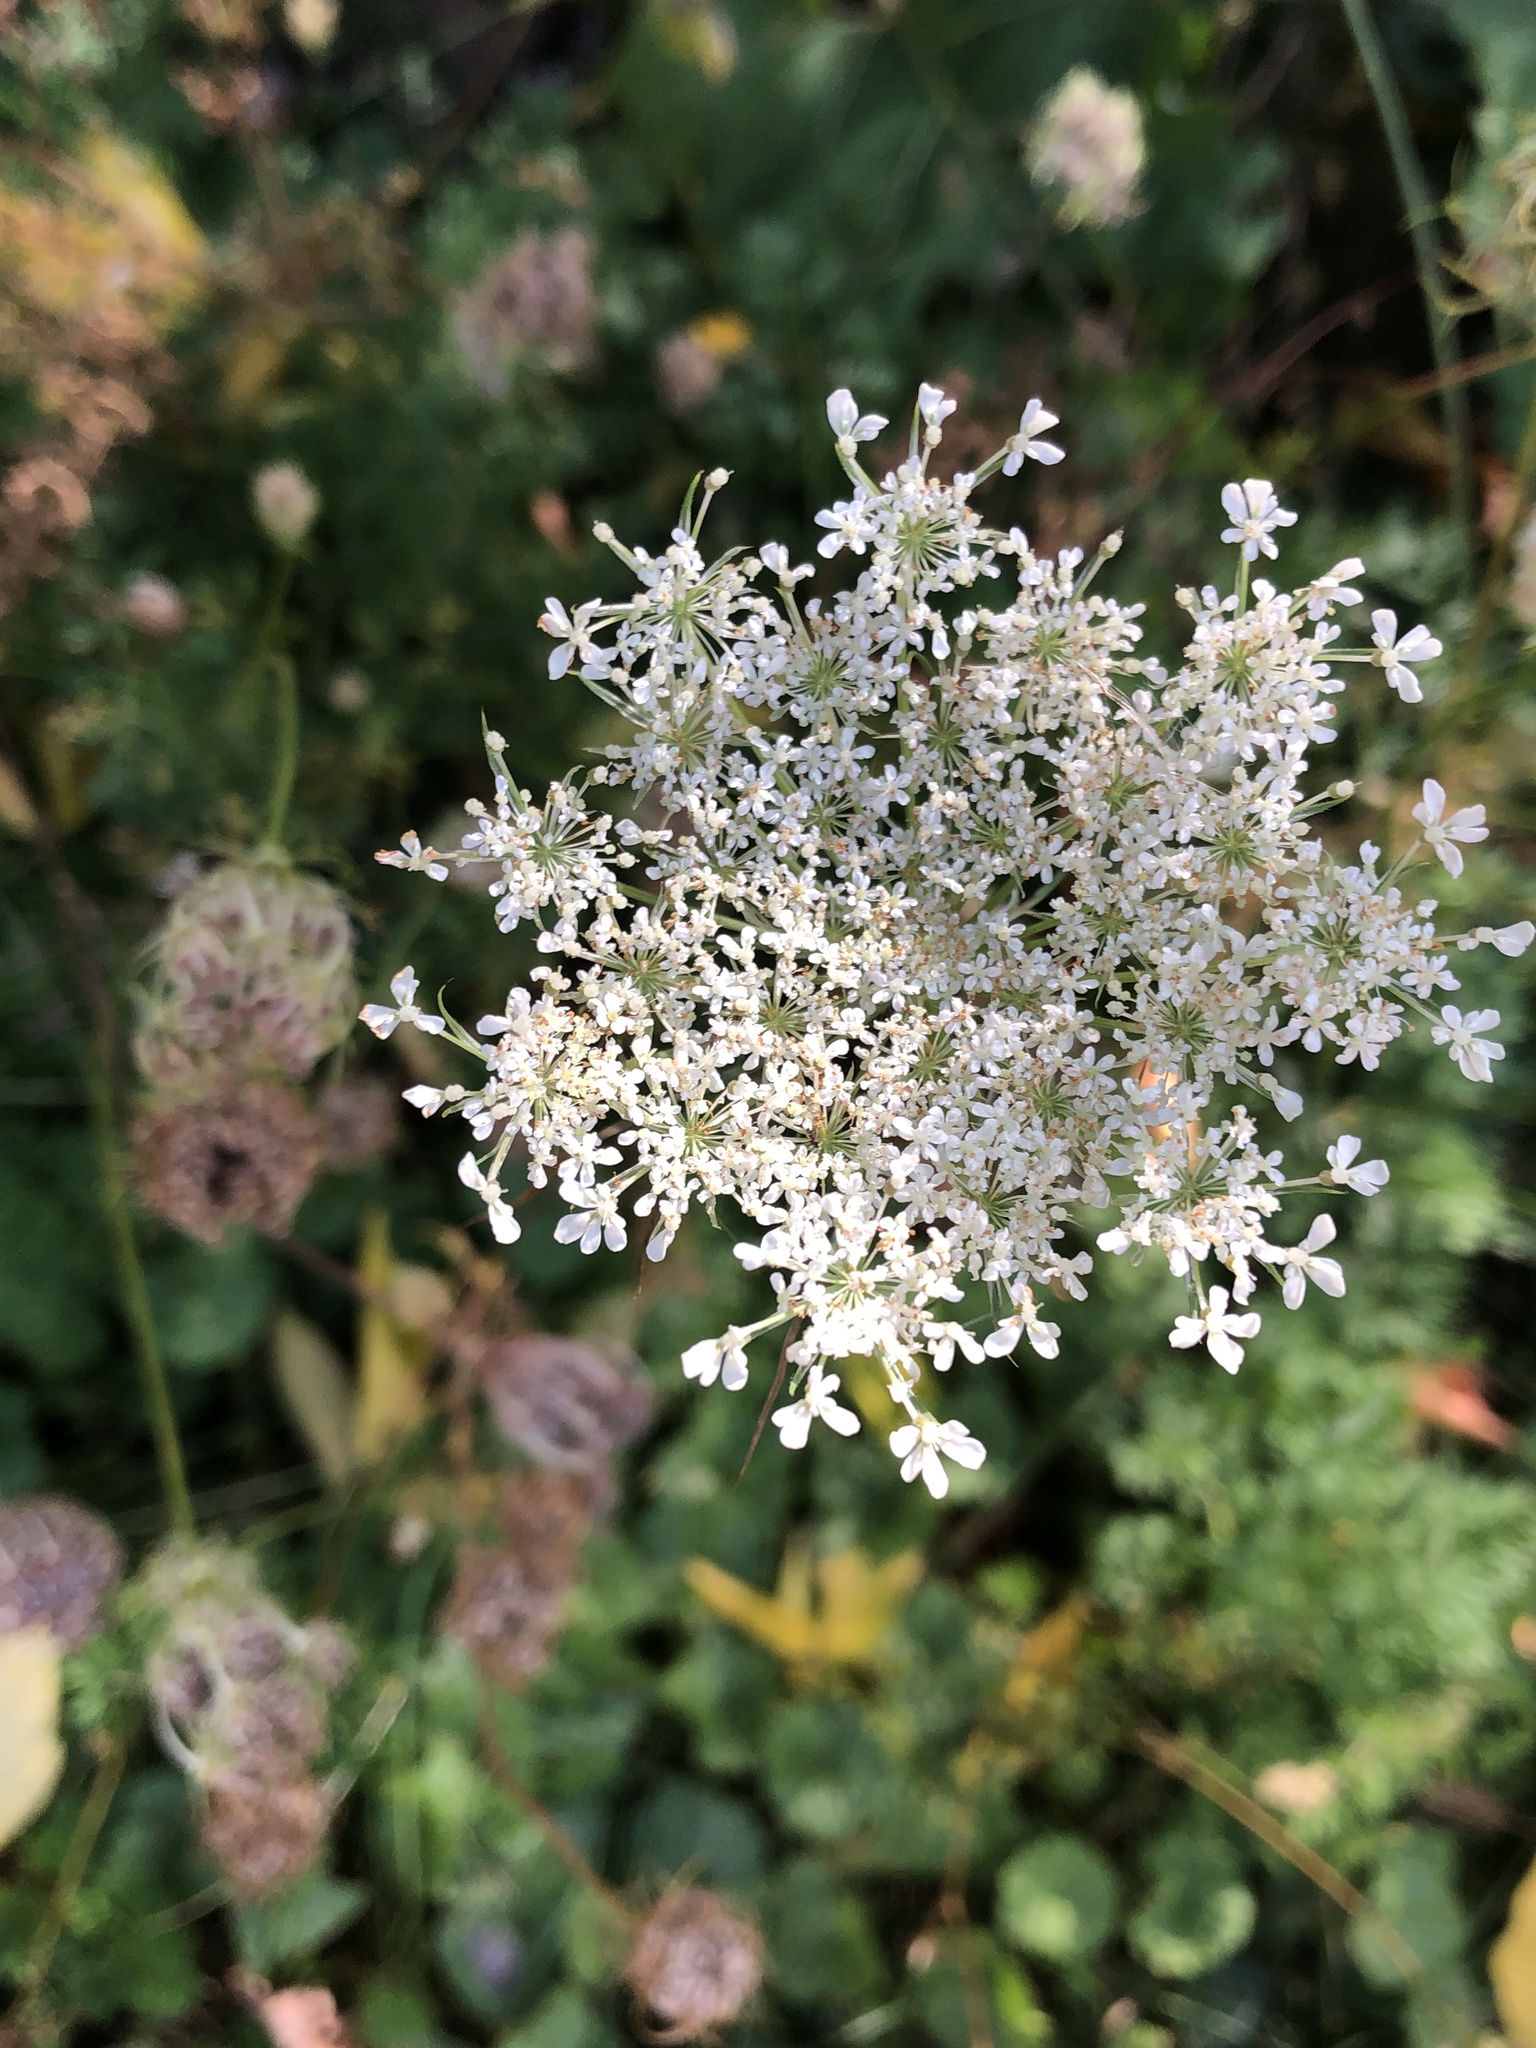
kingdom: Plantae
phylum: Tracheophyta
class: Magnoliopsida
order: Apiales
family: Apiaceae
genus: Daucus
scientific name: Daucus carota
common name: Wild carrot
